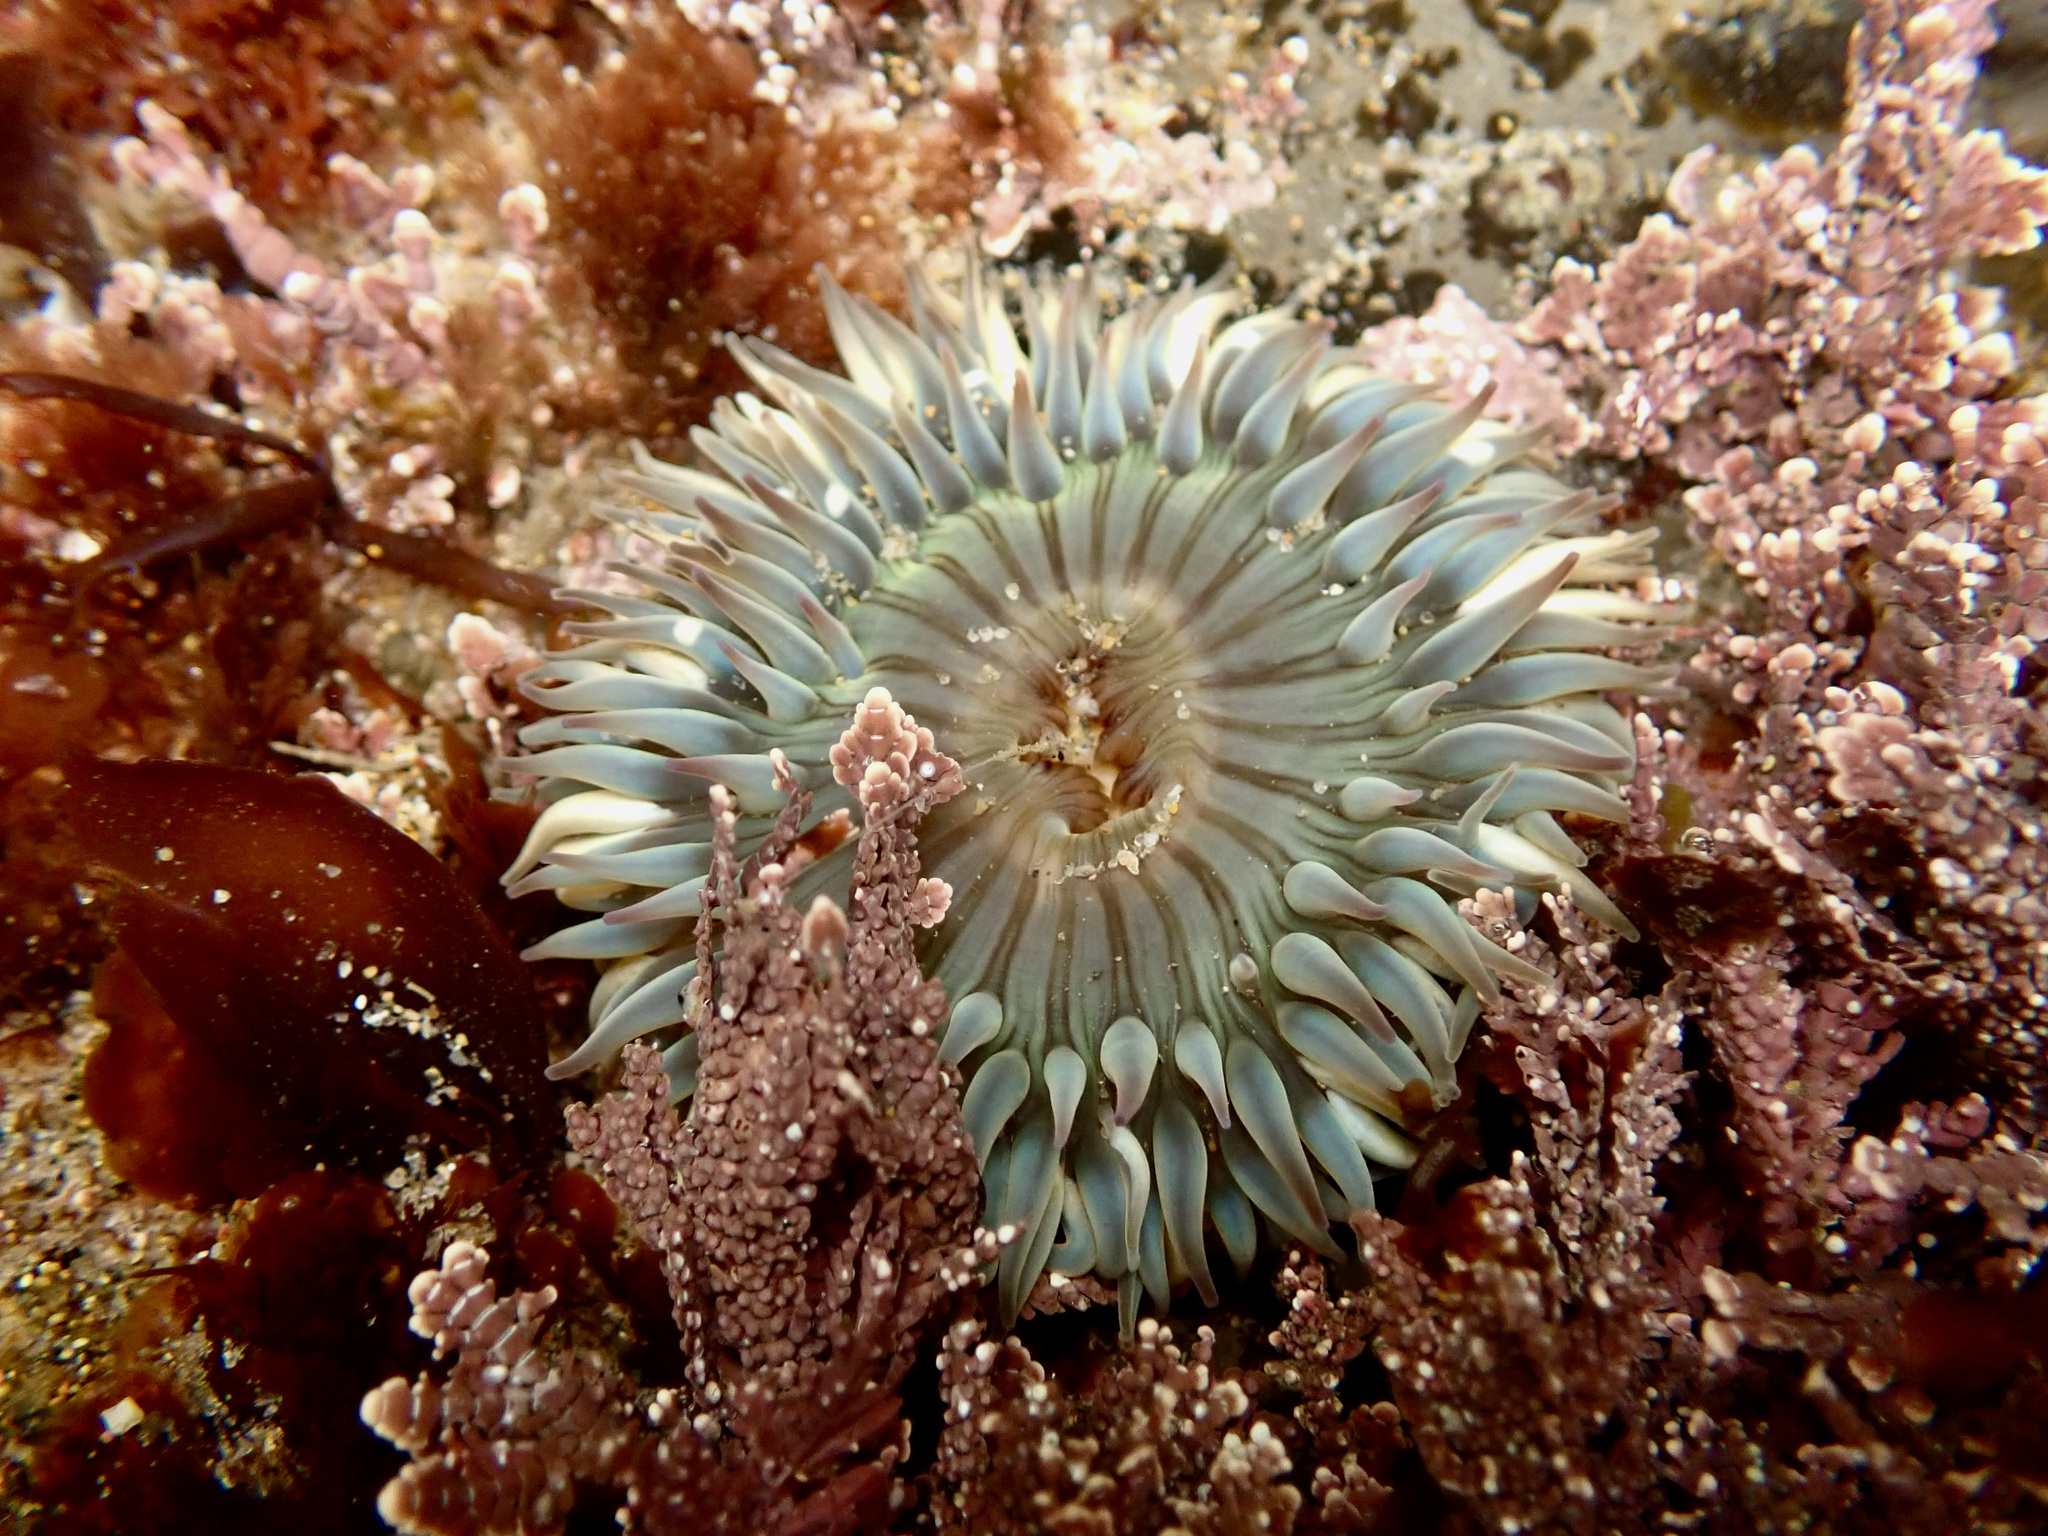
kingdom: Animalia
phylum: Cnidaria
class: Anthozoa
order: Actiniaria
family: Actiniidae
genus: Anthopleura
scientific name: Anthopleura sola
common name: Sun anemone
